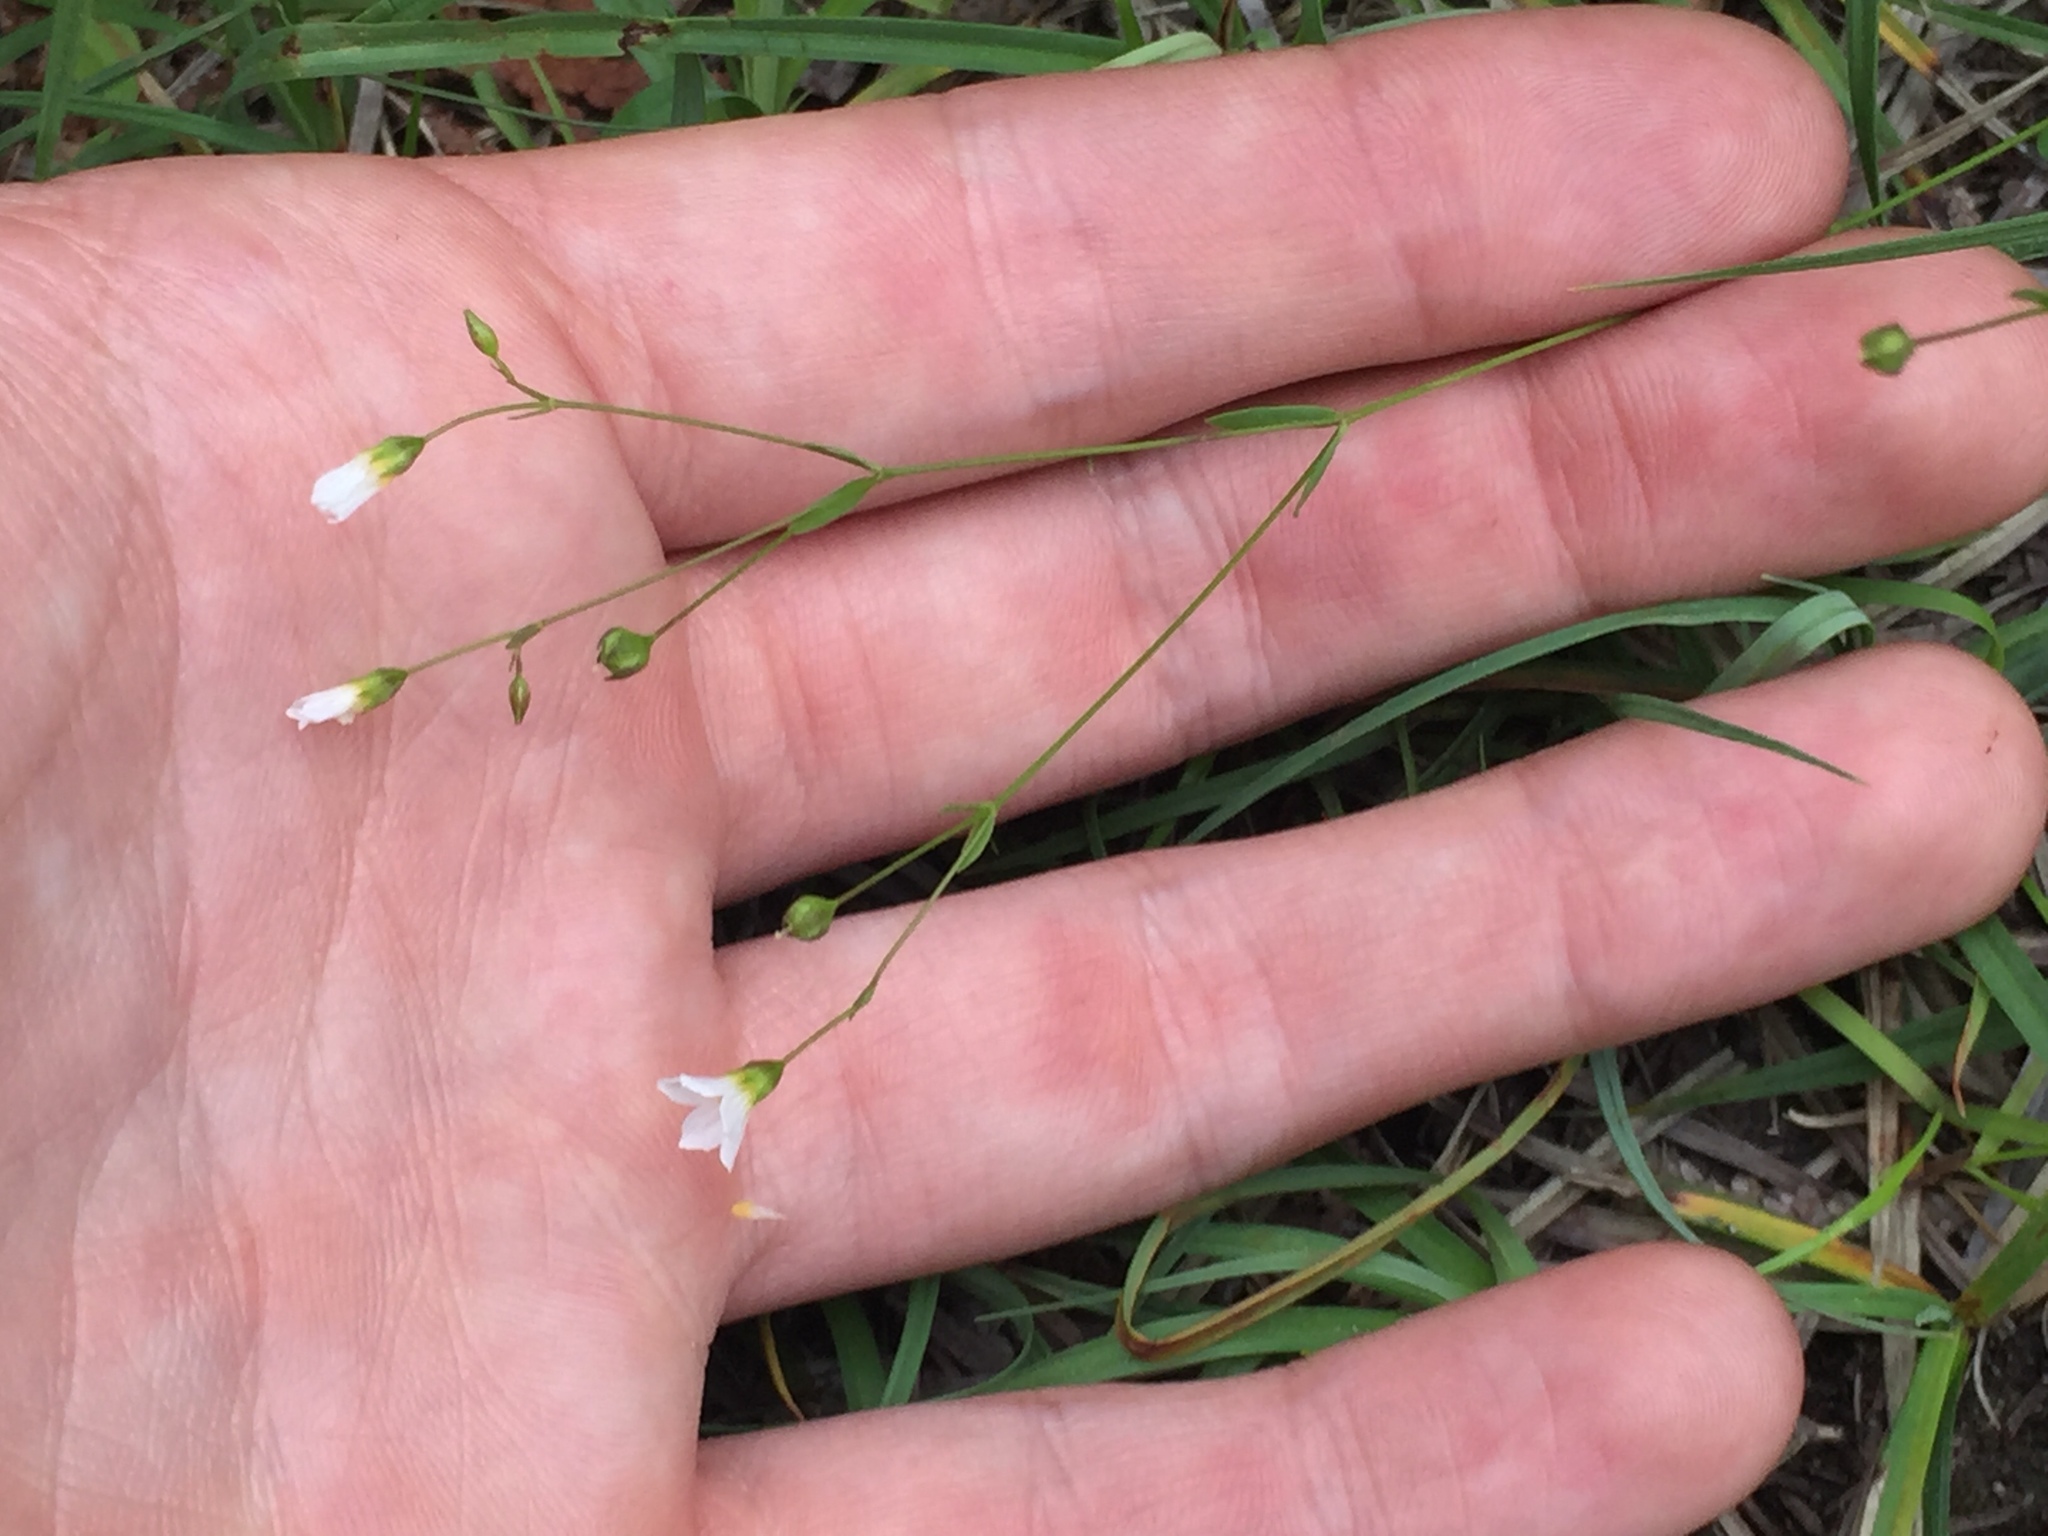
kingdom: Plantae
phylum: Tracheophyta
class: Magnoliopsida
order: Malpighiales
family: Linaceae
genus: Linum
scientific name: Linum catharticum
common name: Fairy flax
